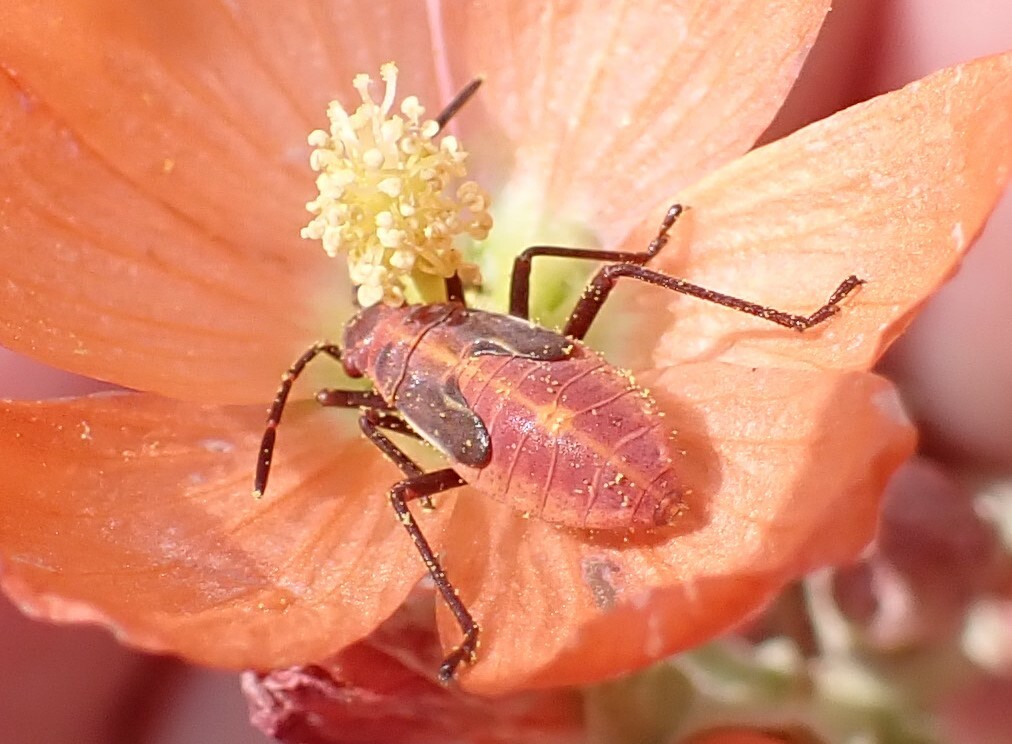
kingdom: Animalia
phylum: Arthropoda
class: Insecta
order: Hemiptera
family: Rhopalidae
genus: Boisea
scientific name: Boisea trivittata
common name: Boxelder bug
